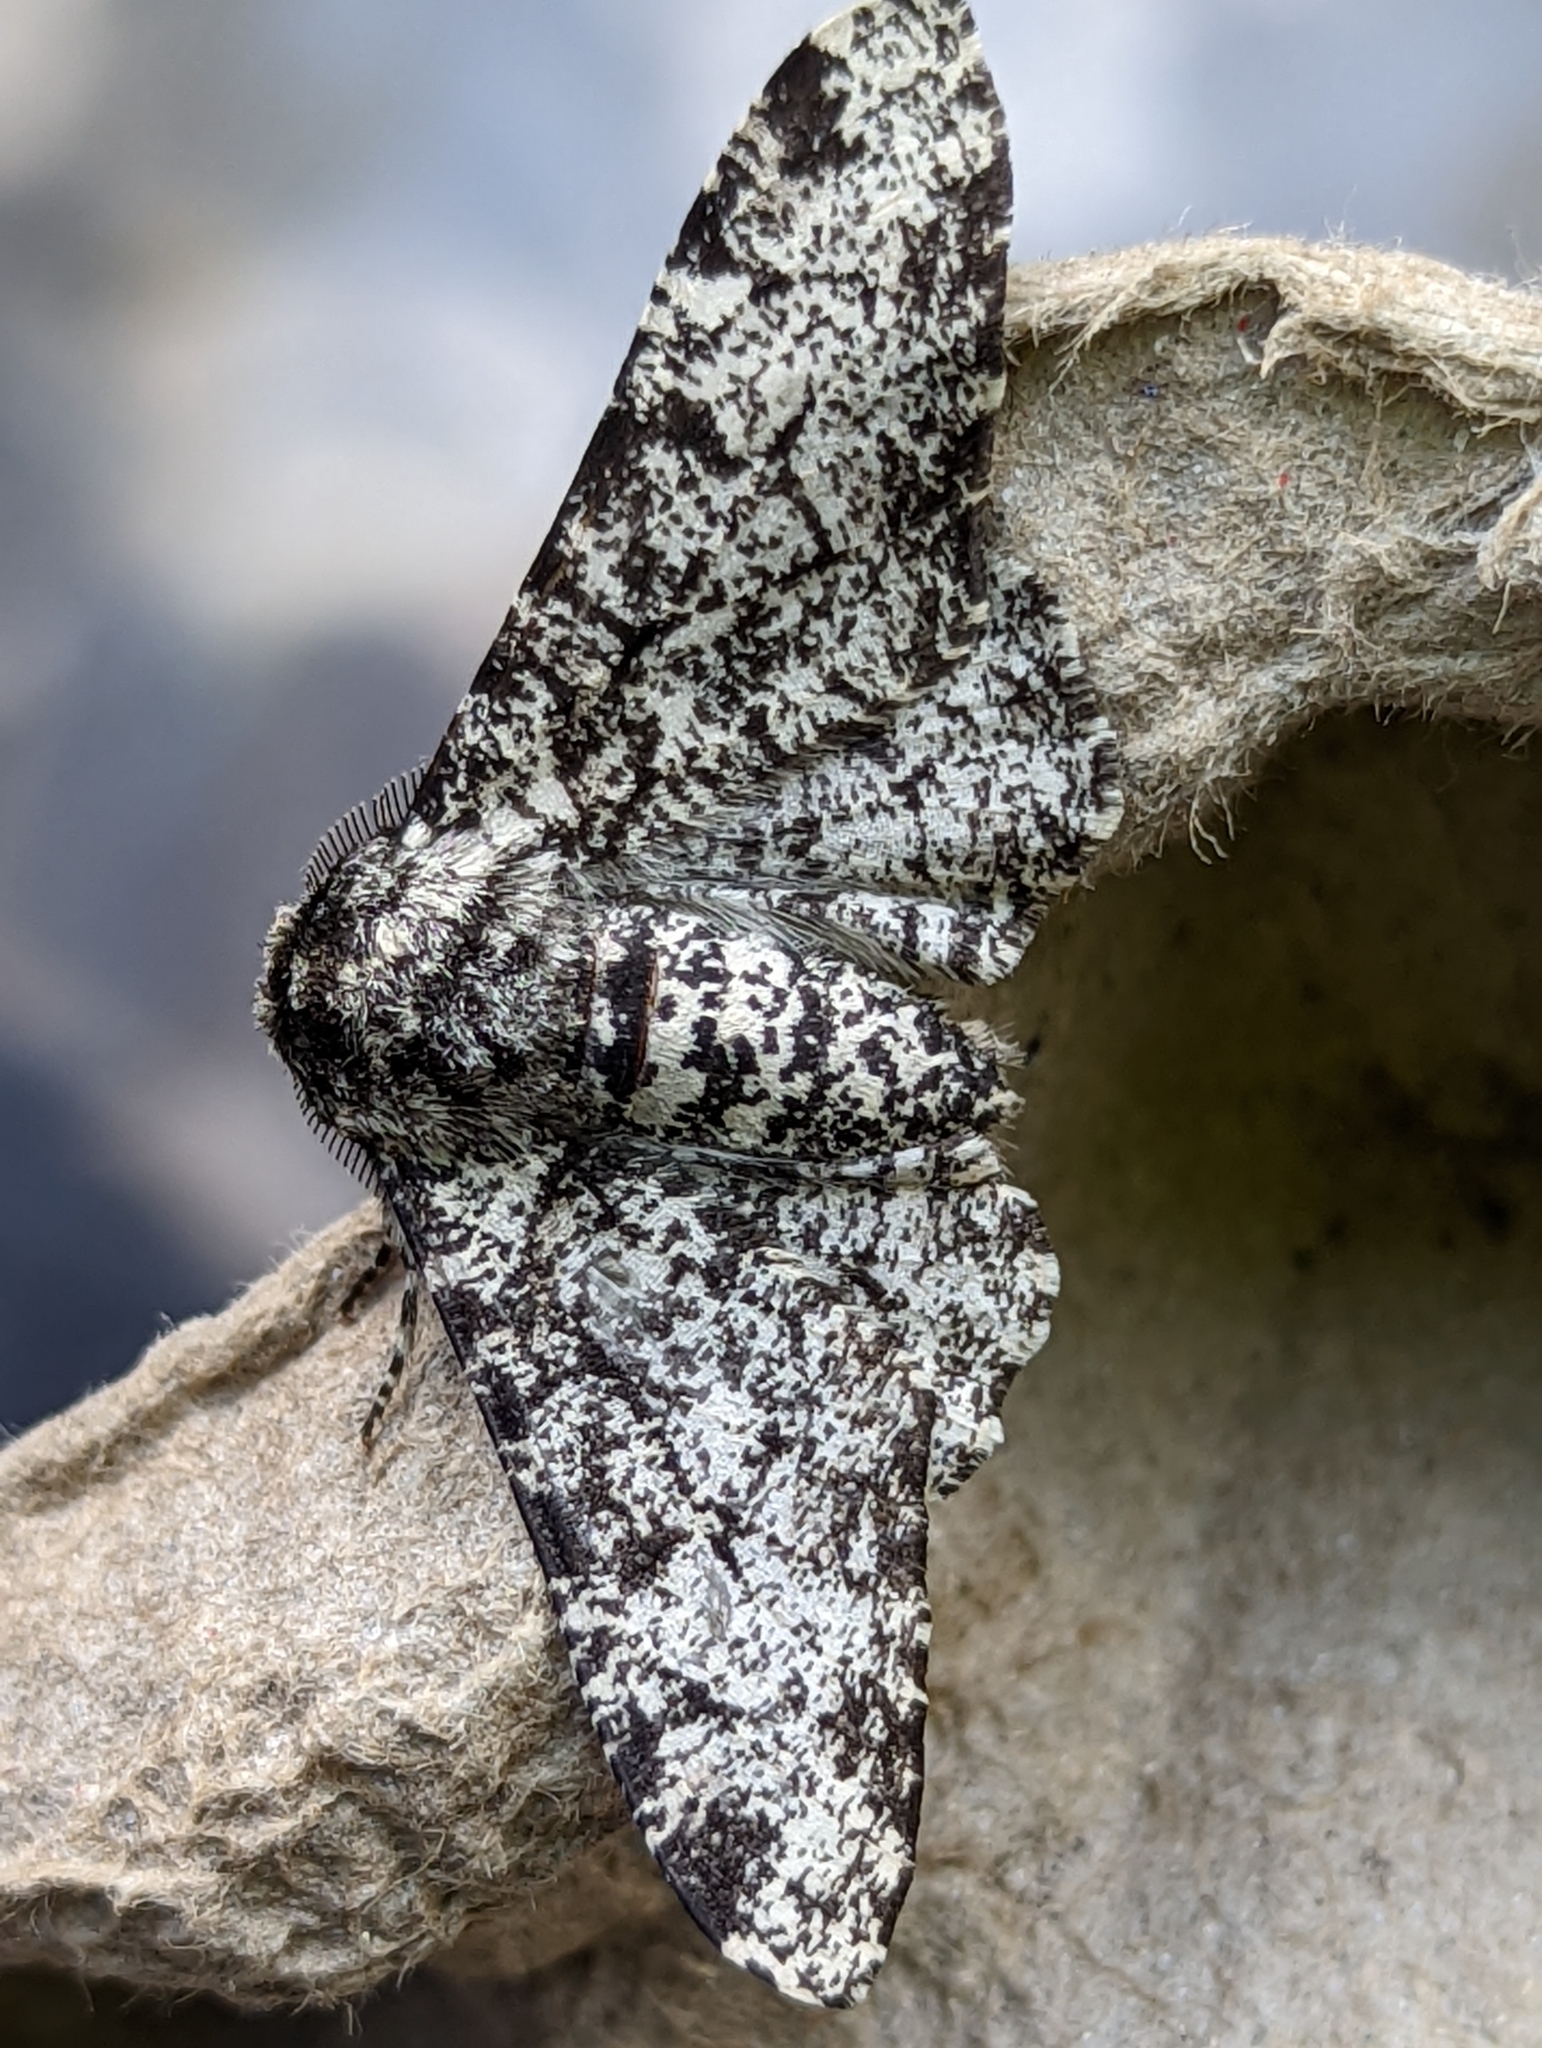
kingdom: Animalia
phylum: Arthropoda
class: Insecta
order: Lepidoptera
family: Geometridae
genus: Biston
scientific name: Biston betularia
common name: Peppered moth
